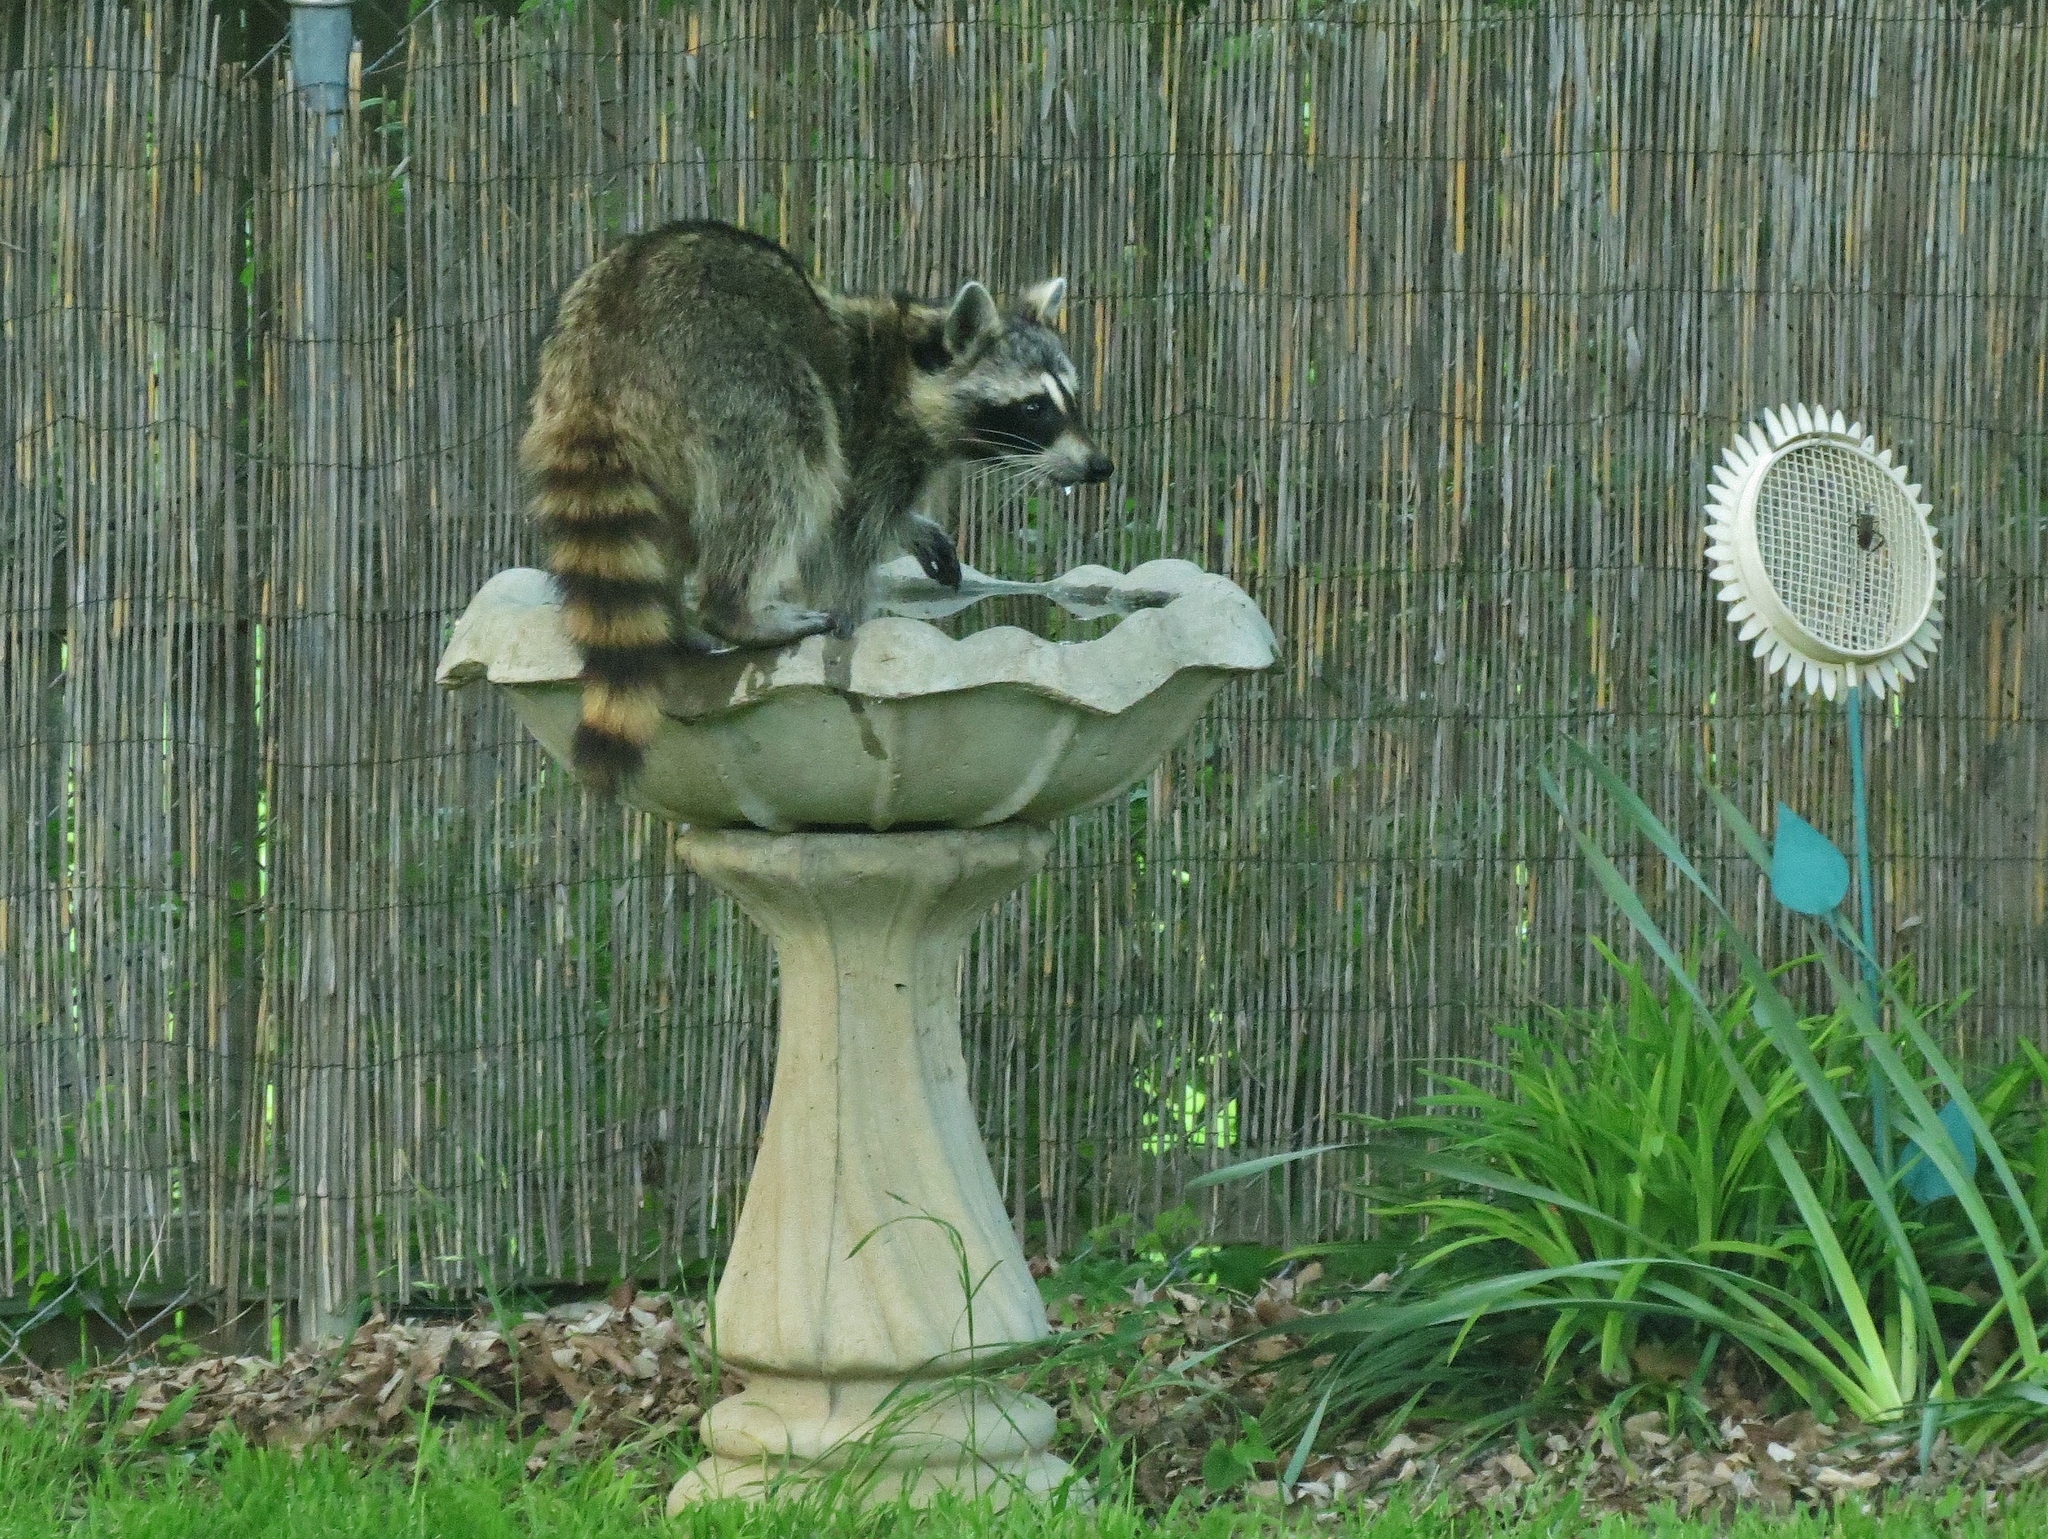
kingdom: Animalia
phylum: Chordata
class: Mammalia
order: Carnivora
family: Procyonidae
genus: Procyon
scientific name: Procyon lotor
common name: Raccoon
